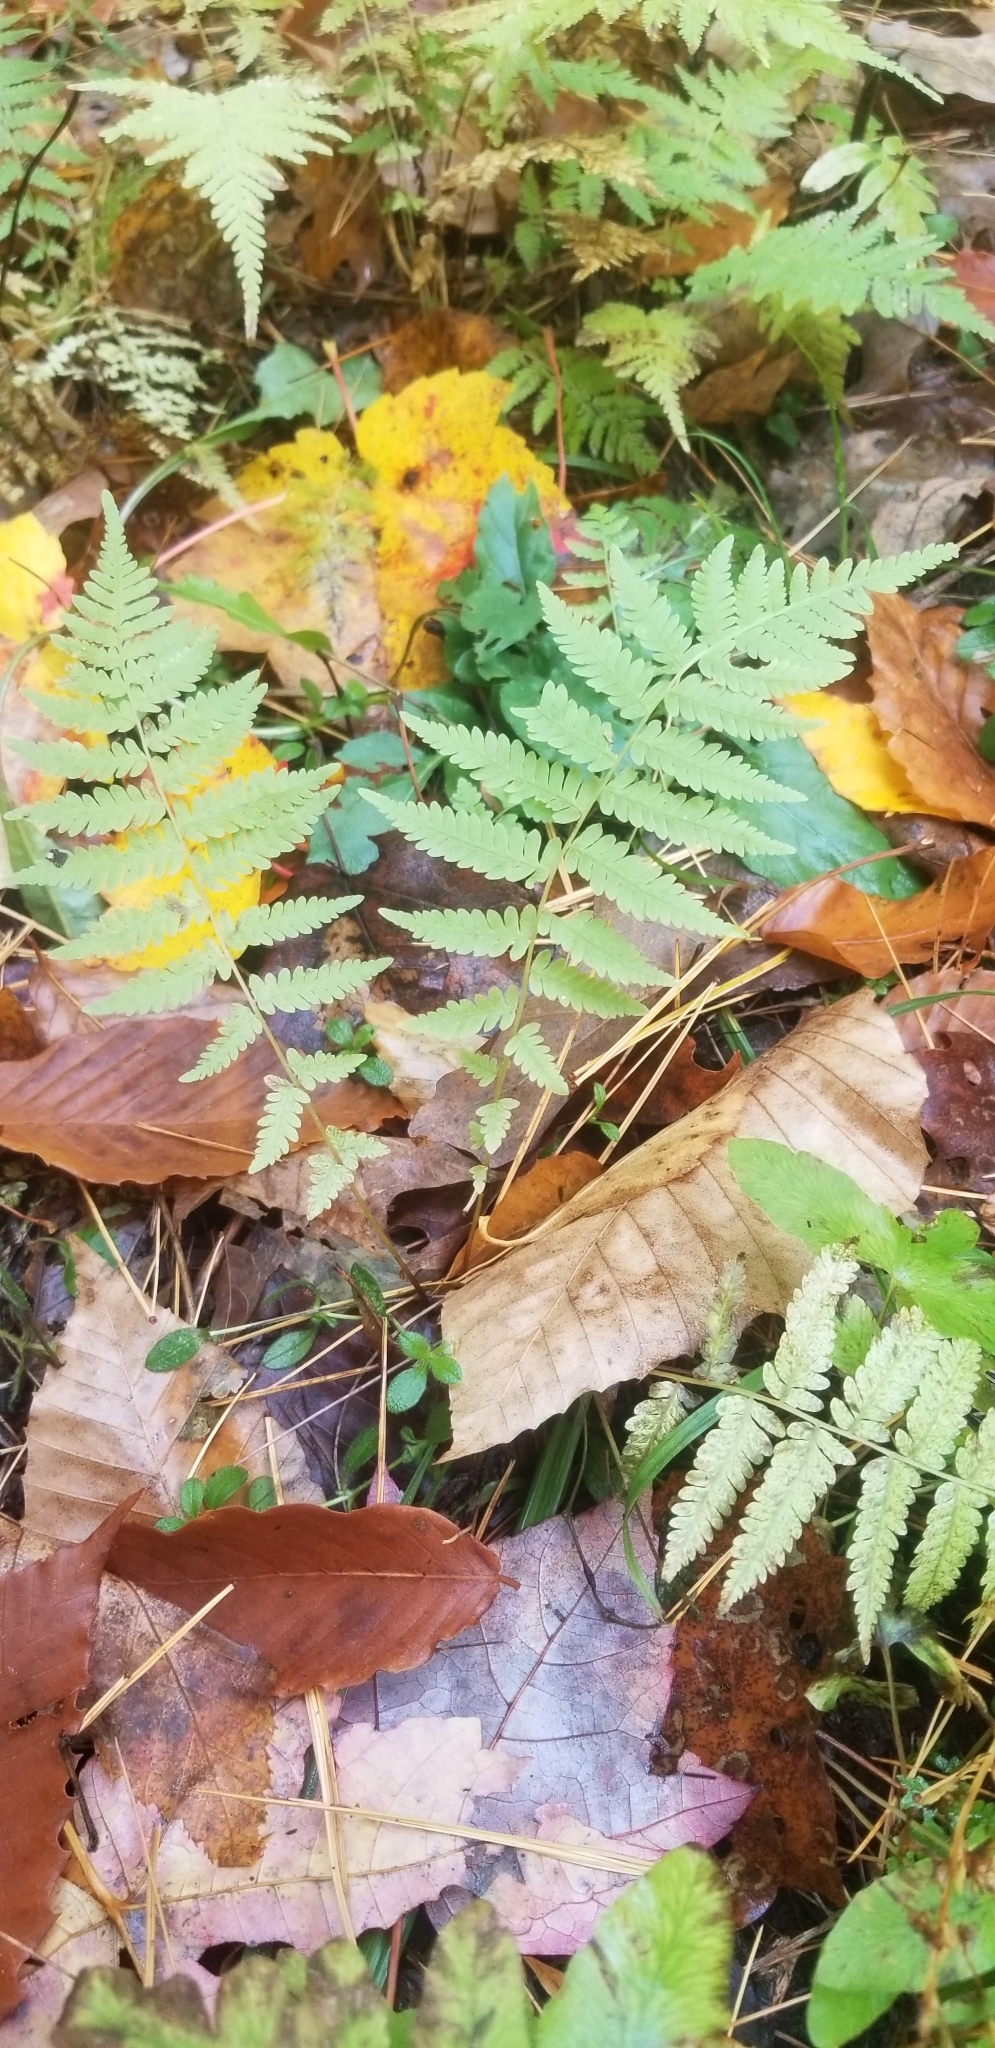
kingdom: Plantae
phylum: Tracheophyta
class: Polypodiopsida
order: Polypodiales
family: Thelypteridaceae
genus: Amauropelta
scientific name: Amauropelta noveboracensis
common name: New york fern
